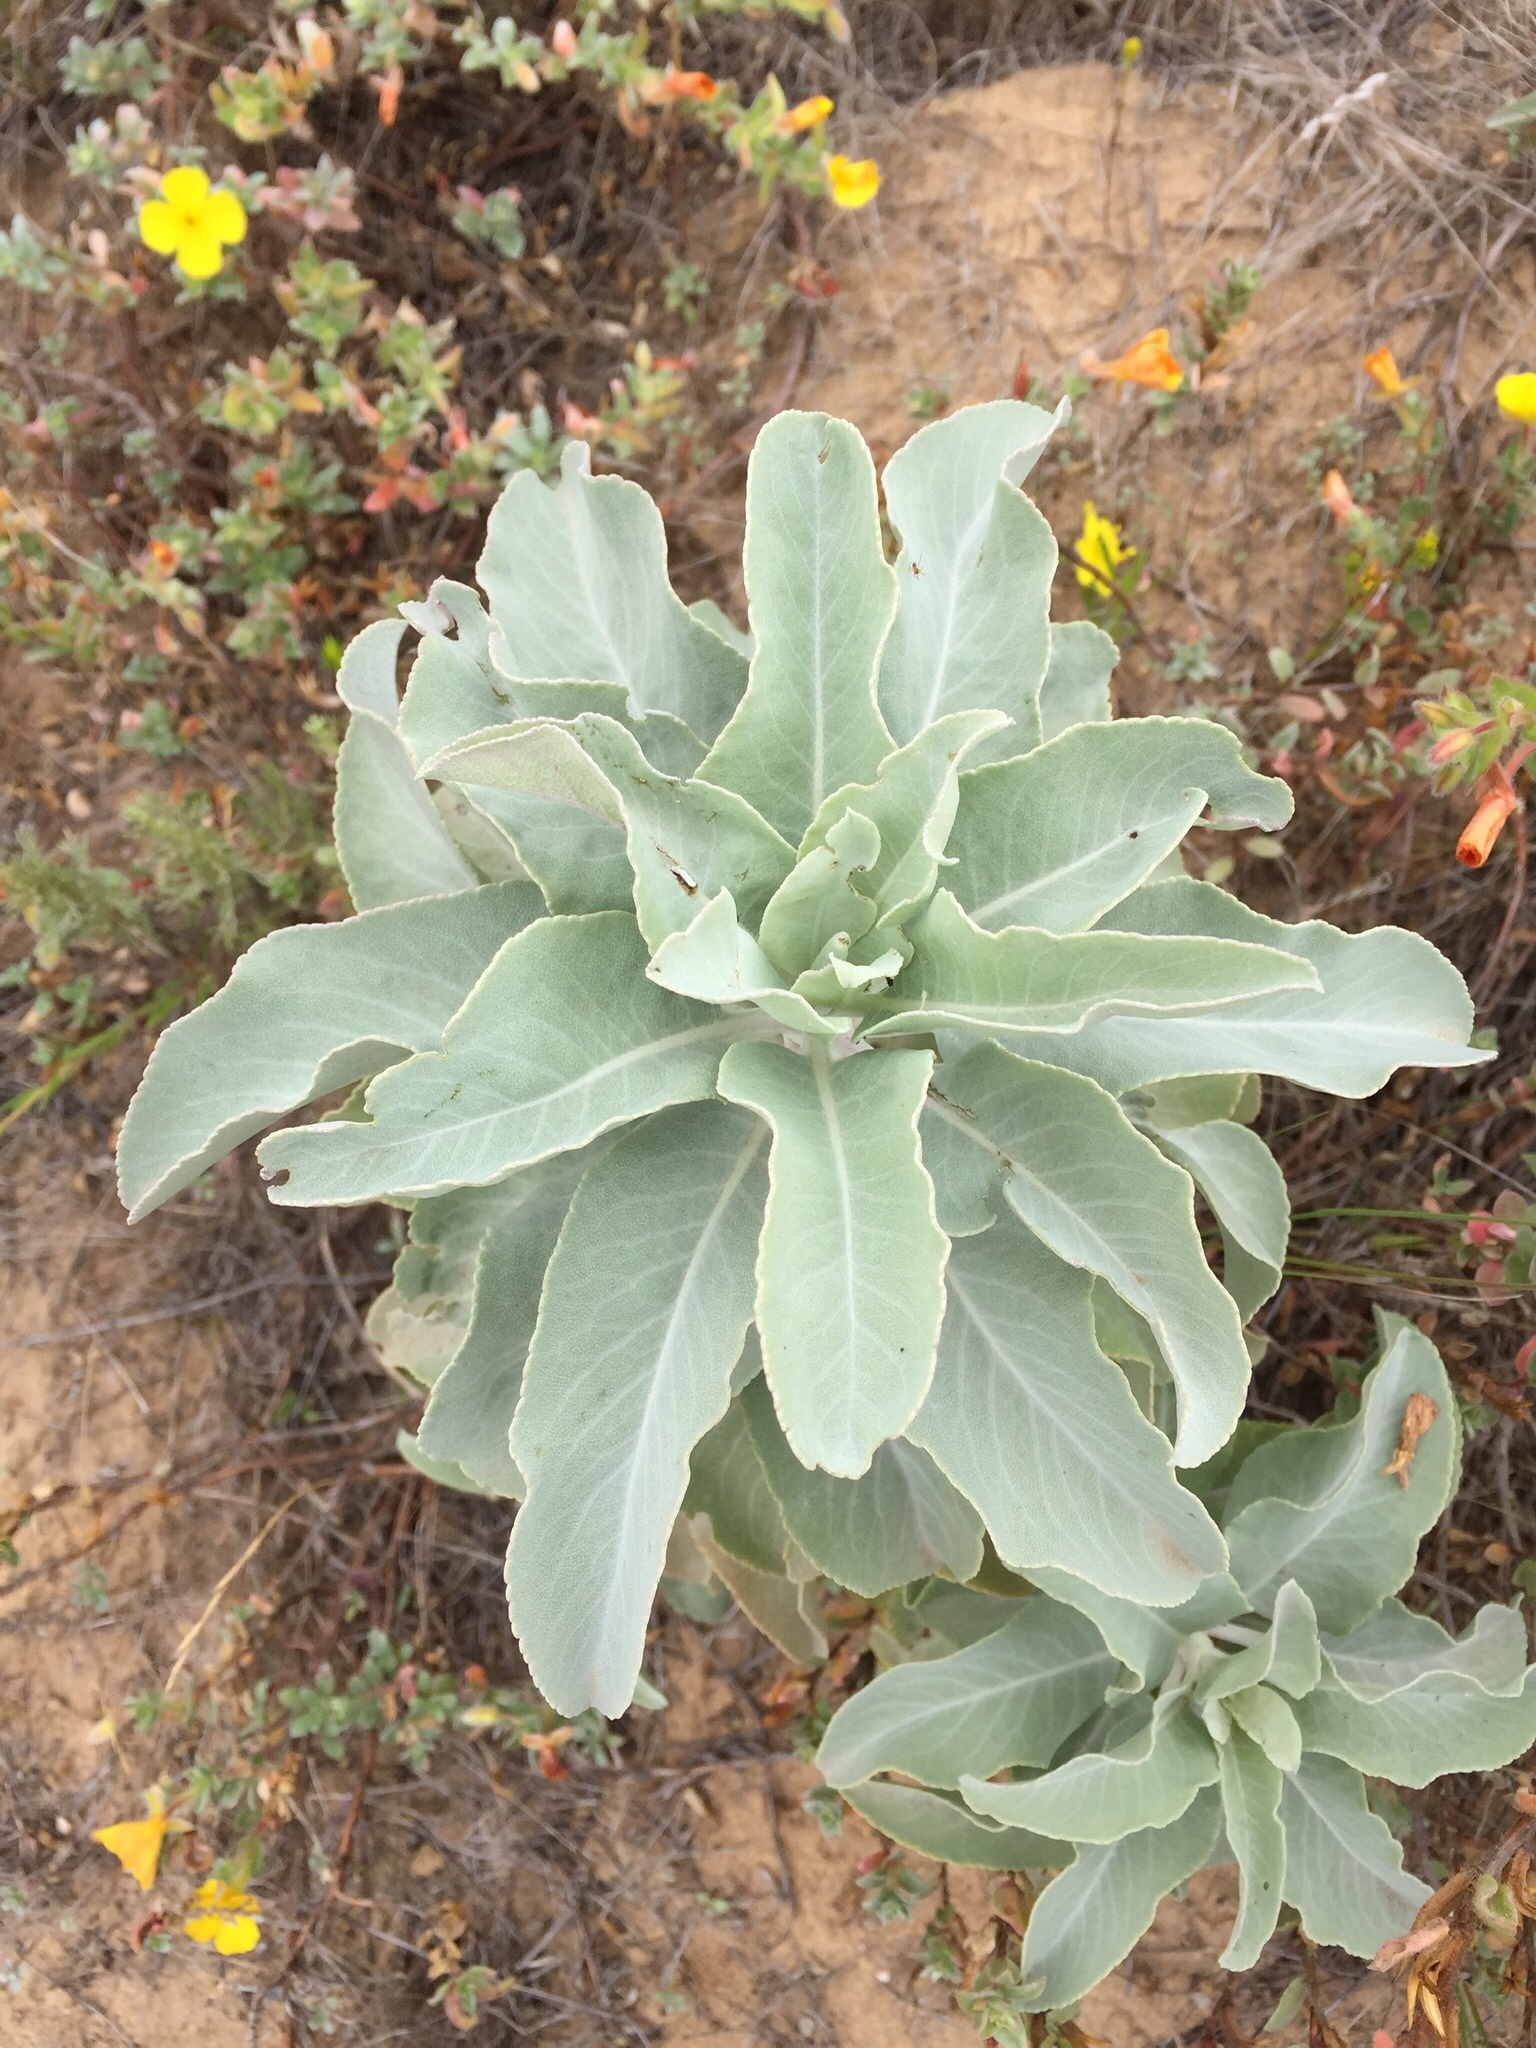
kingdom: Plantae
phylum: Tracheophyta
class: Magnoliopsida
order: Lamiales
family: Lamiaceae
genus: Salvia
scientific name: Salvia apiana
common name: White sage
